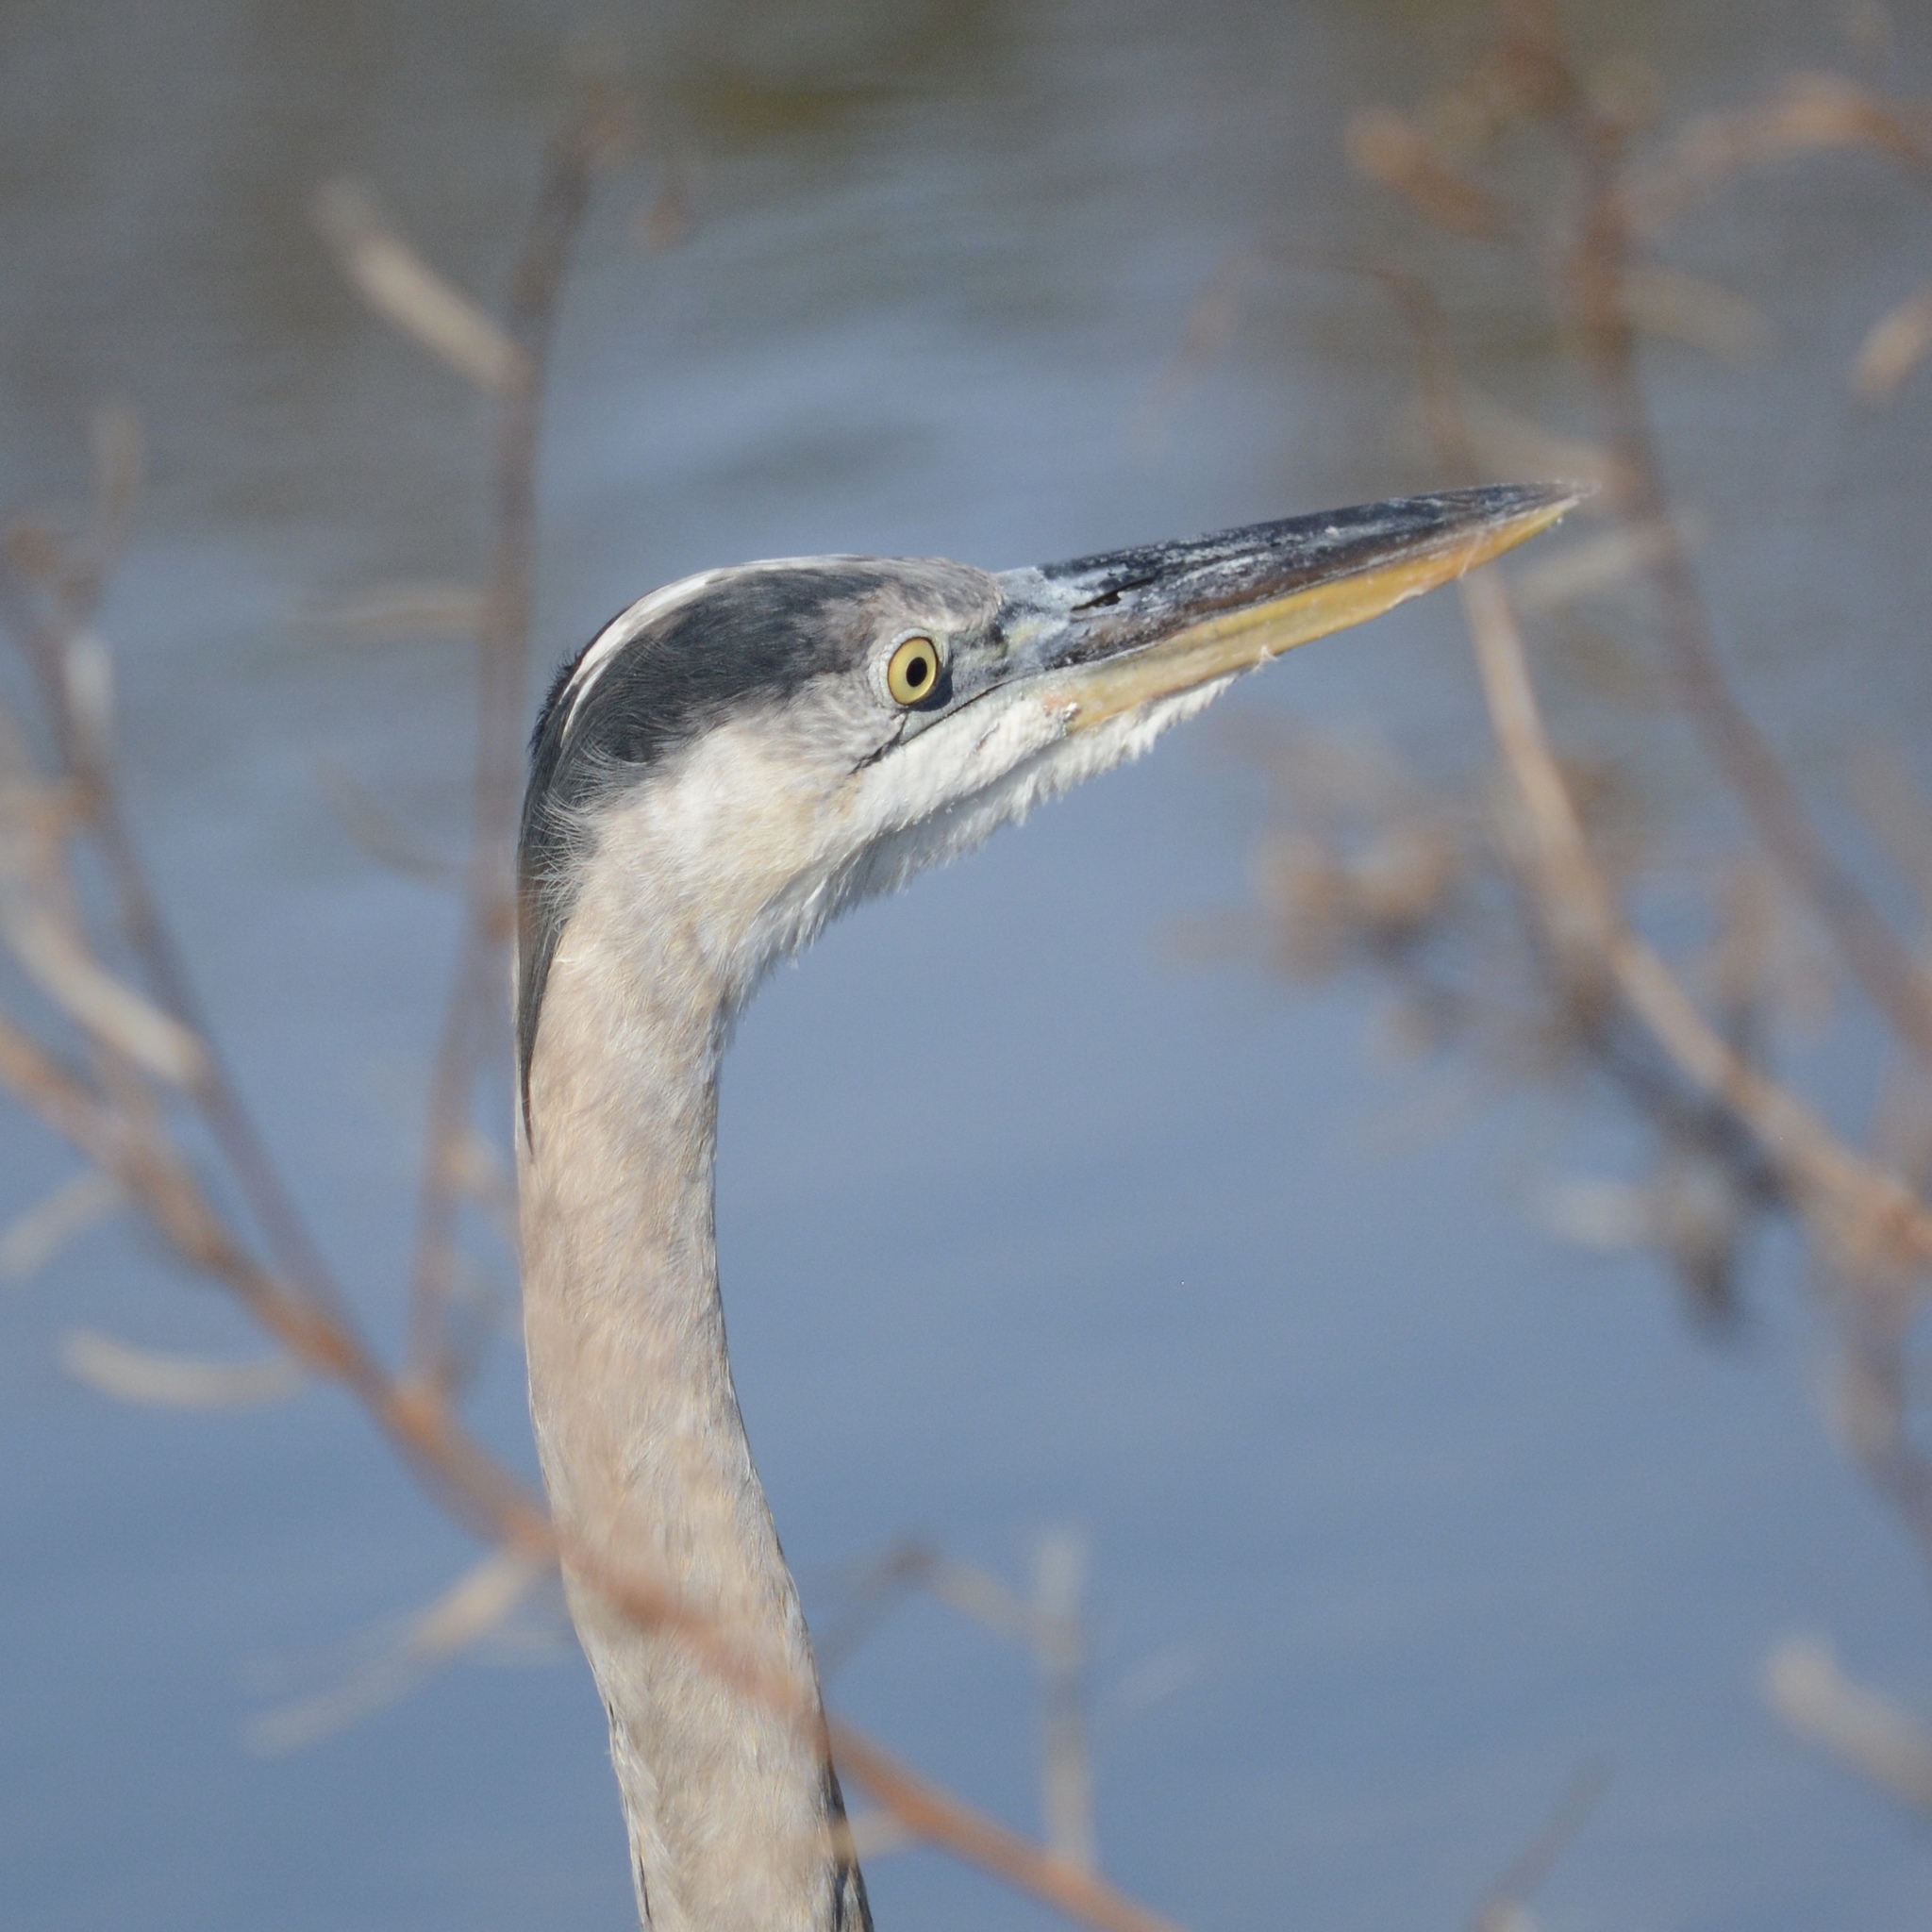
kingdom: Animalia
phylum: Chordata
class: Aves
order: Pelecaniformes
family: Ardeidae
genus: Ardea
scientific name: Ardea herodias
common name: Great blue heron
